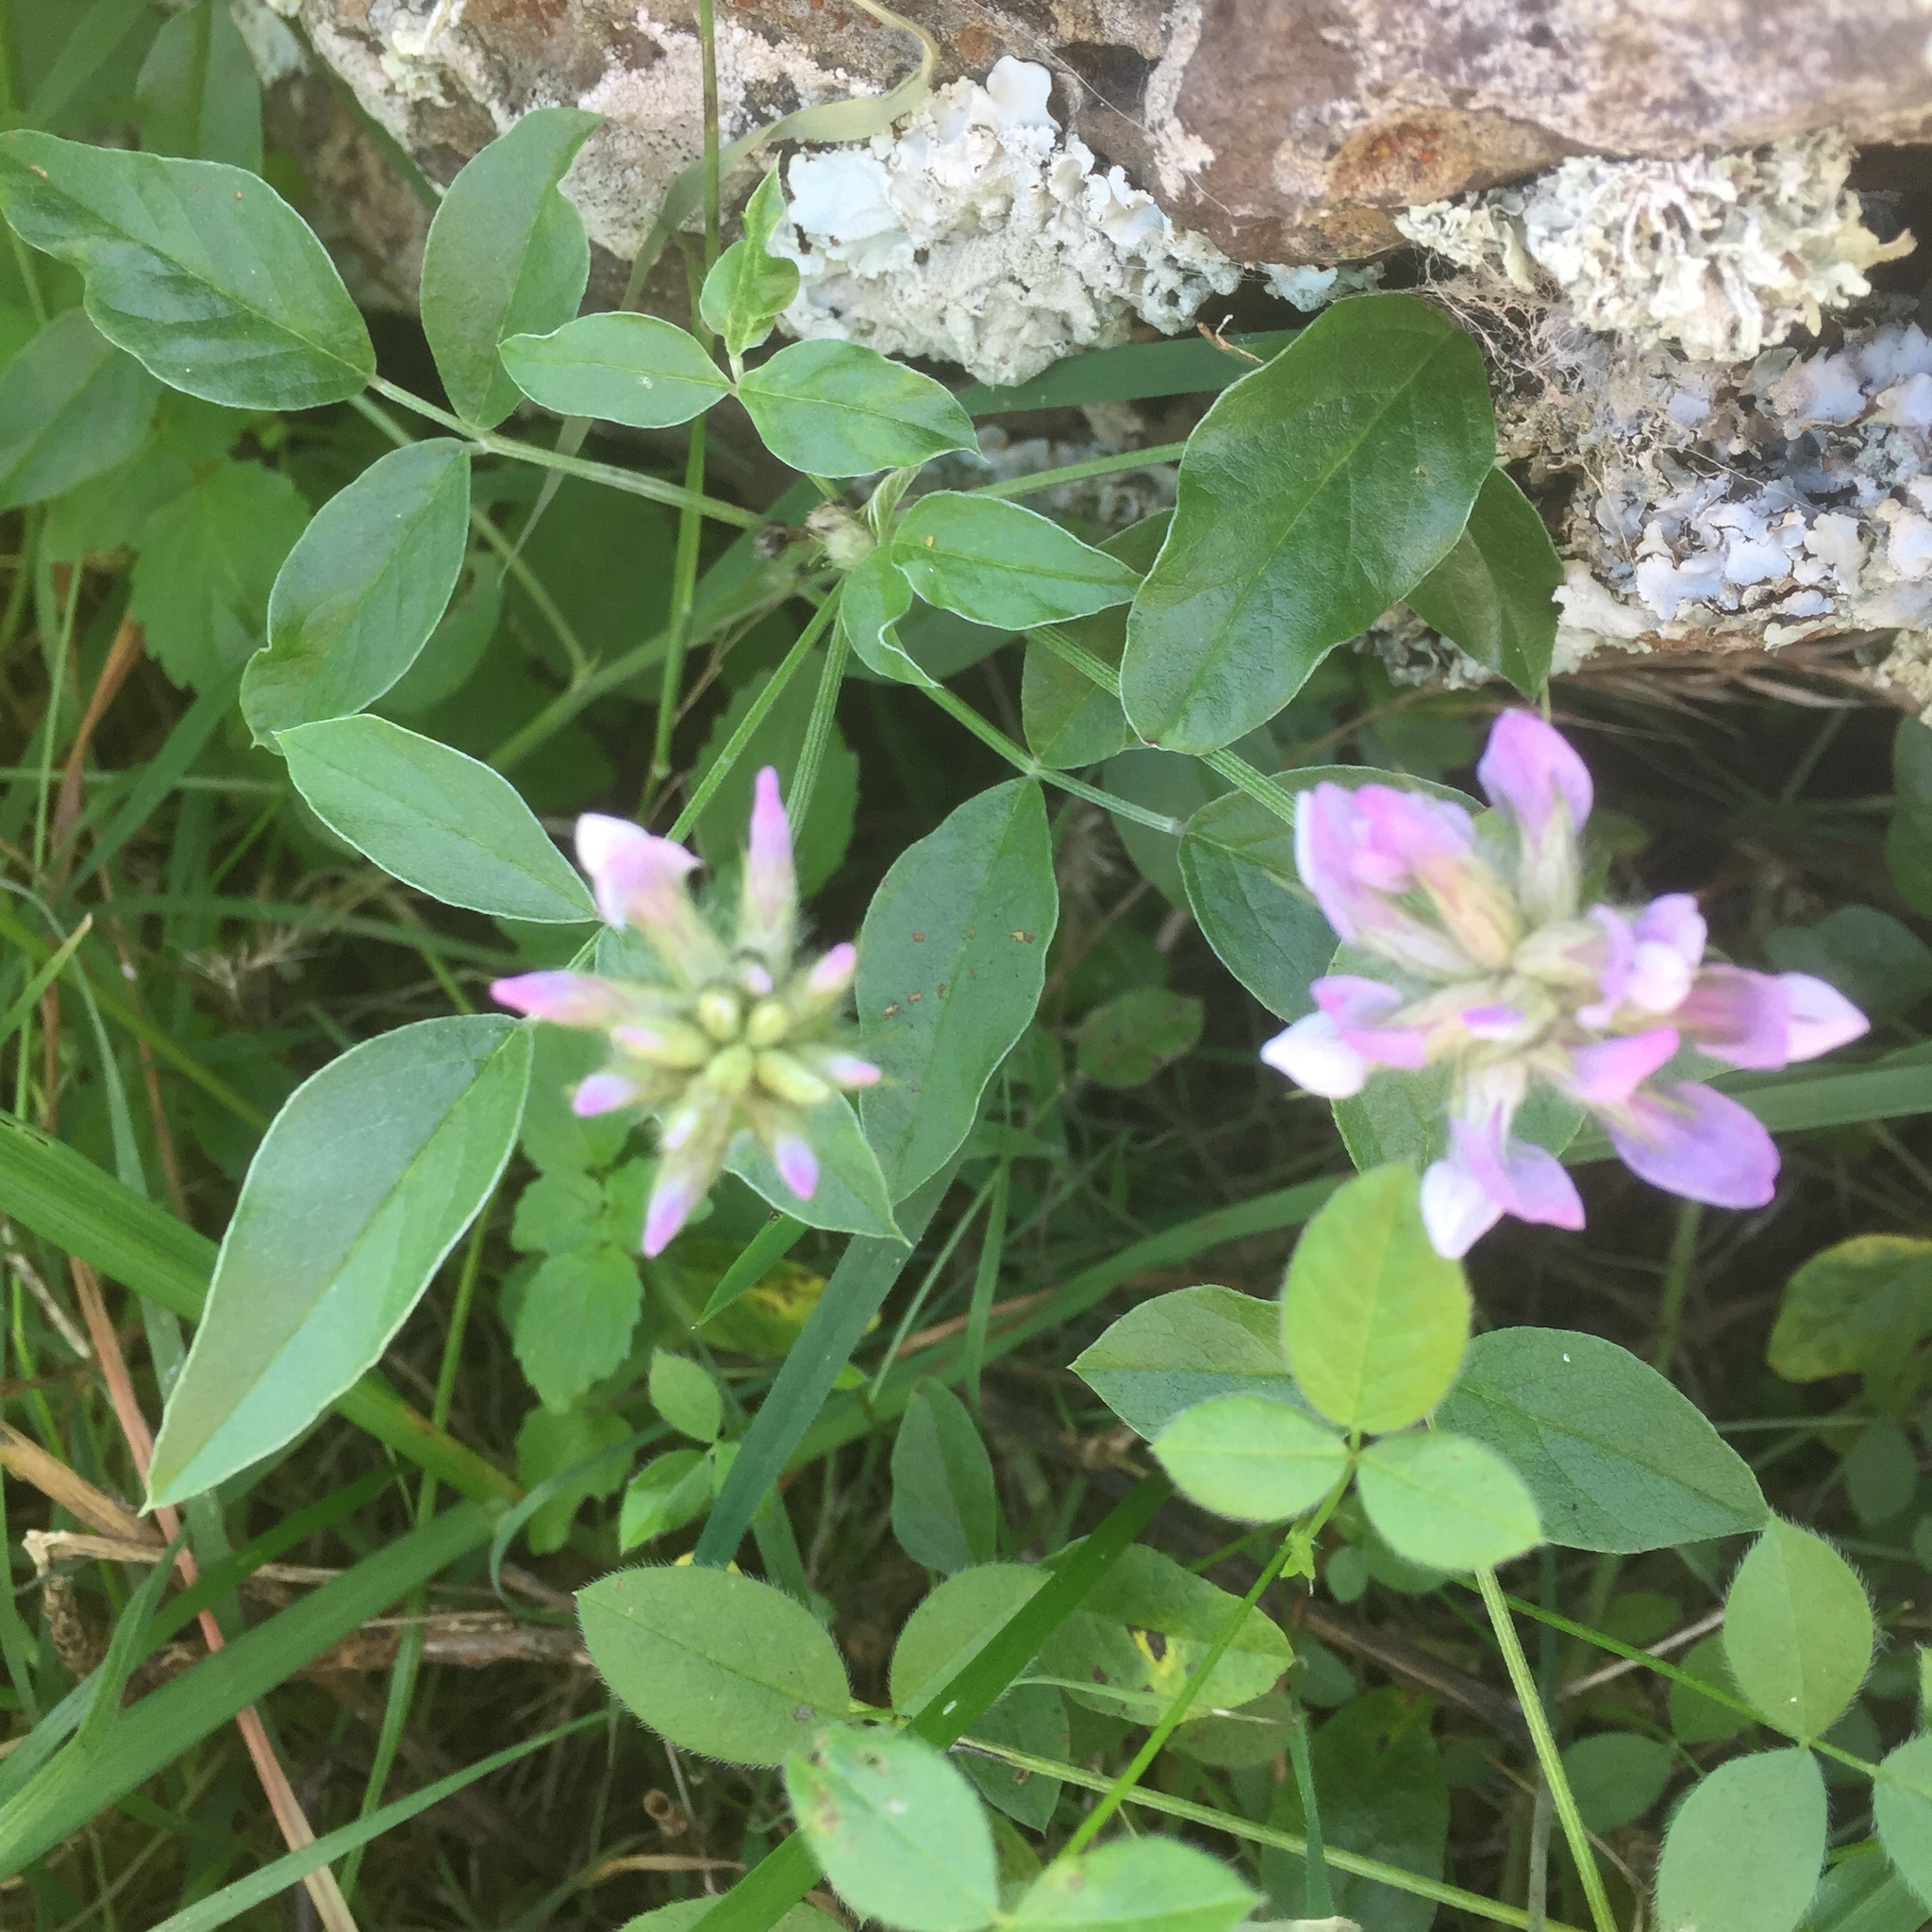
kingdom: Plantae
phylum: Tracheophyta
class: Magnoliopsida
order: Fabales
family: Fabaceae
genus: Bituminaria
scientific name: Bituminaria bituminosa
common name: Arabian pea
